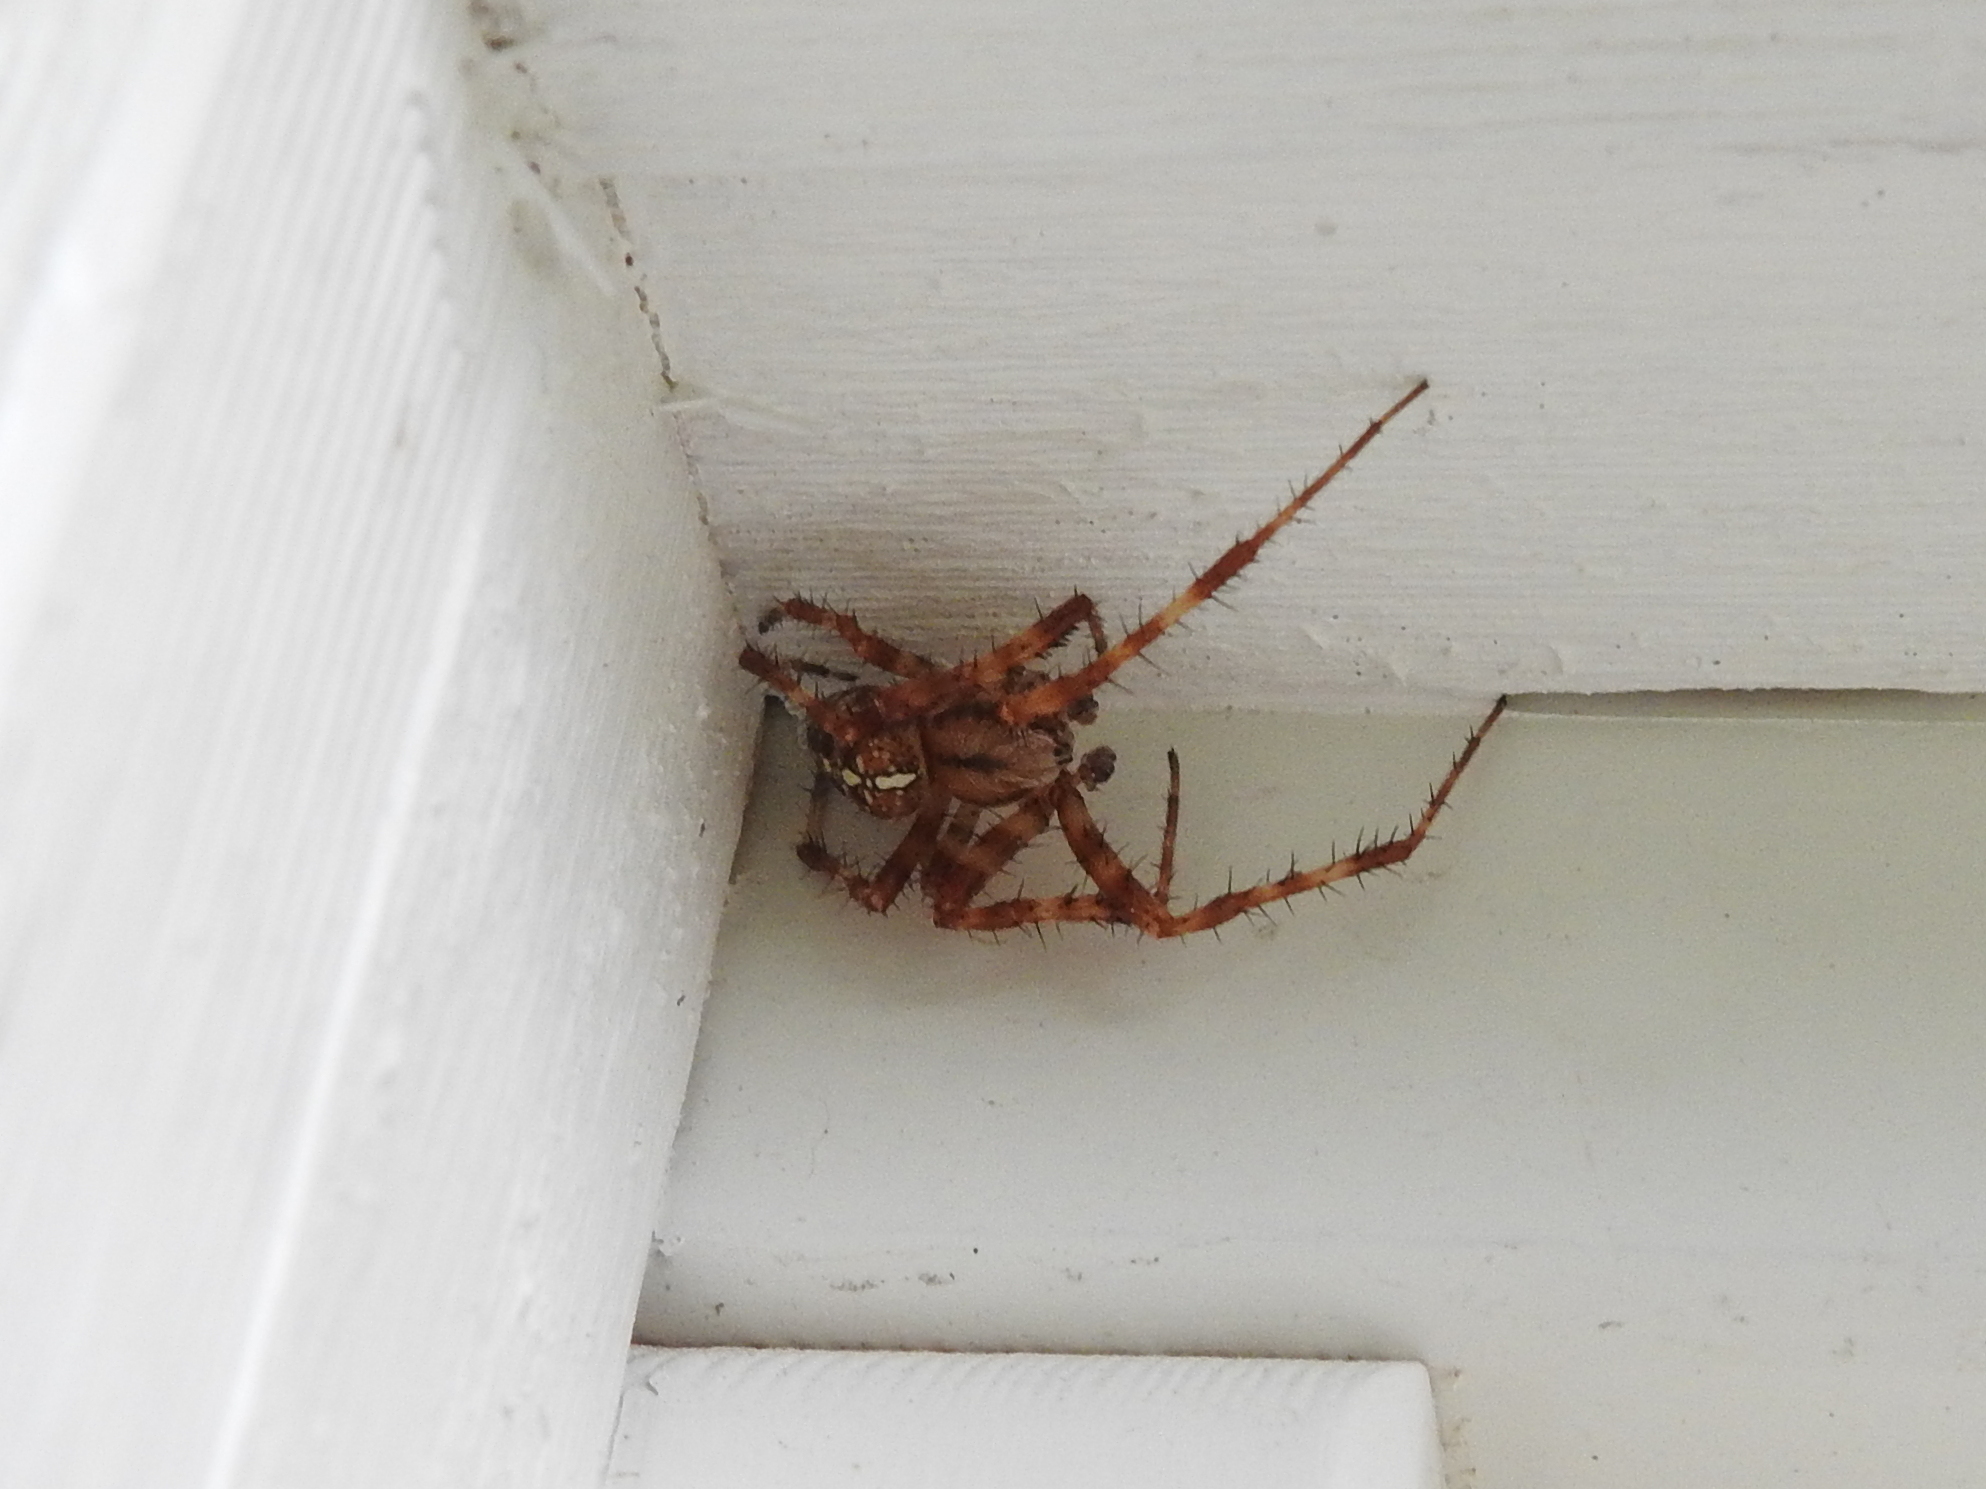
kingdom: Animalia
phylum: Arthropoda
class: Arachnida
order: Araneae
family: Araneidae
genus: Araneus
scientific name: Araneus diadematus
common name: Cross orbweaver
